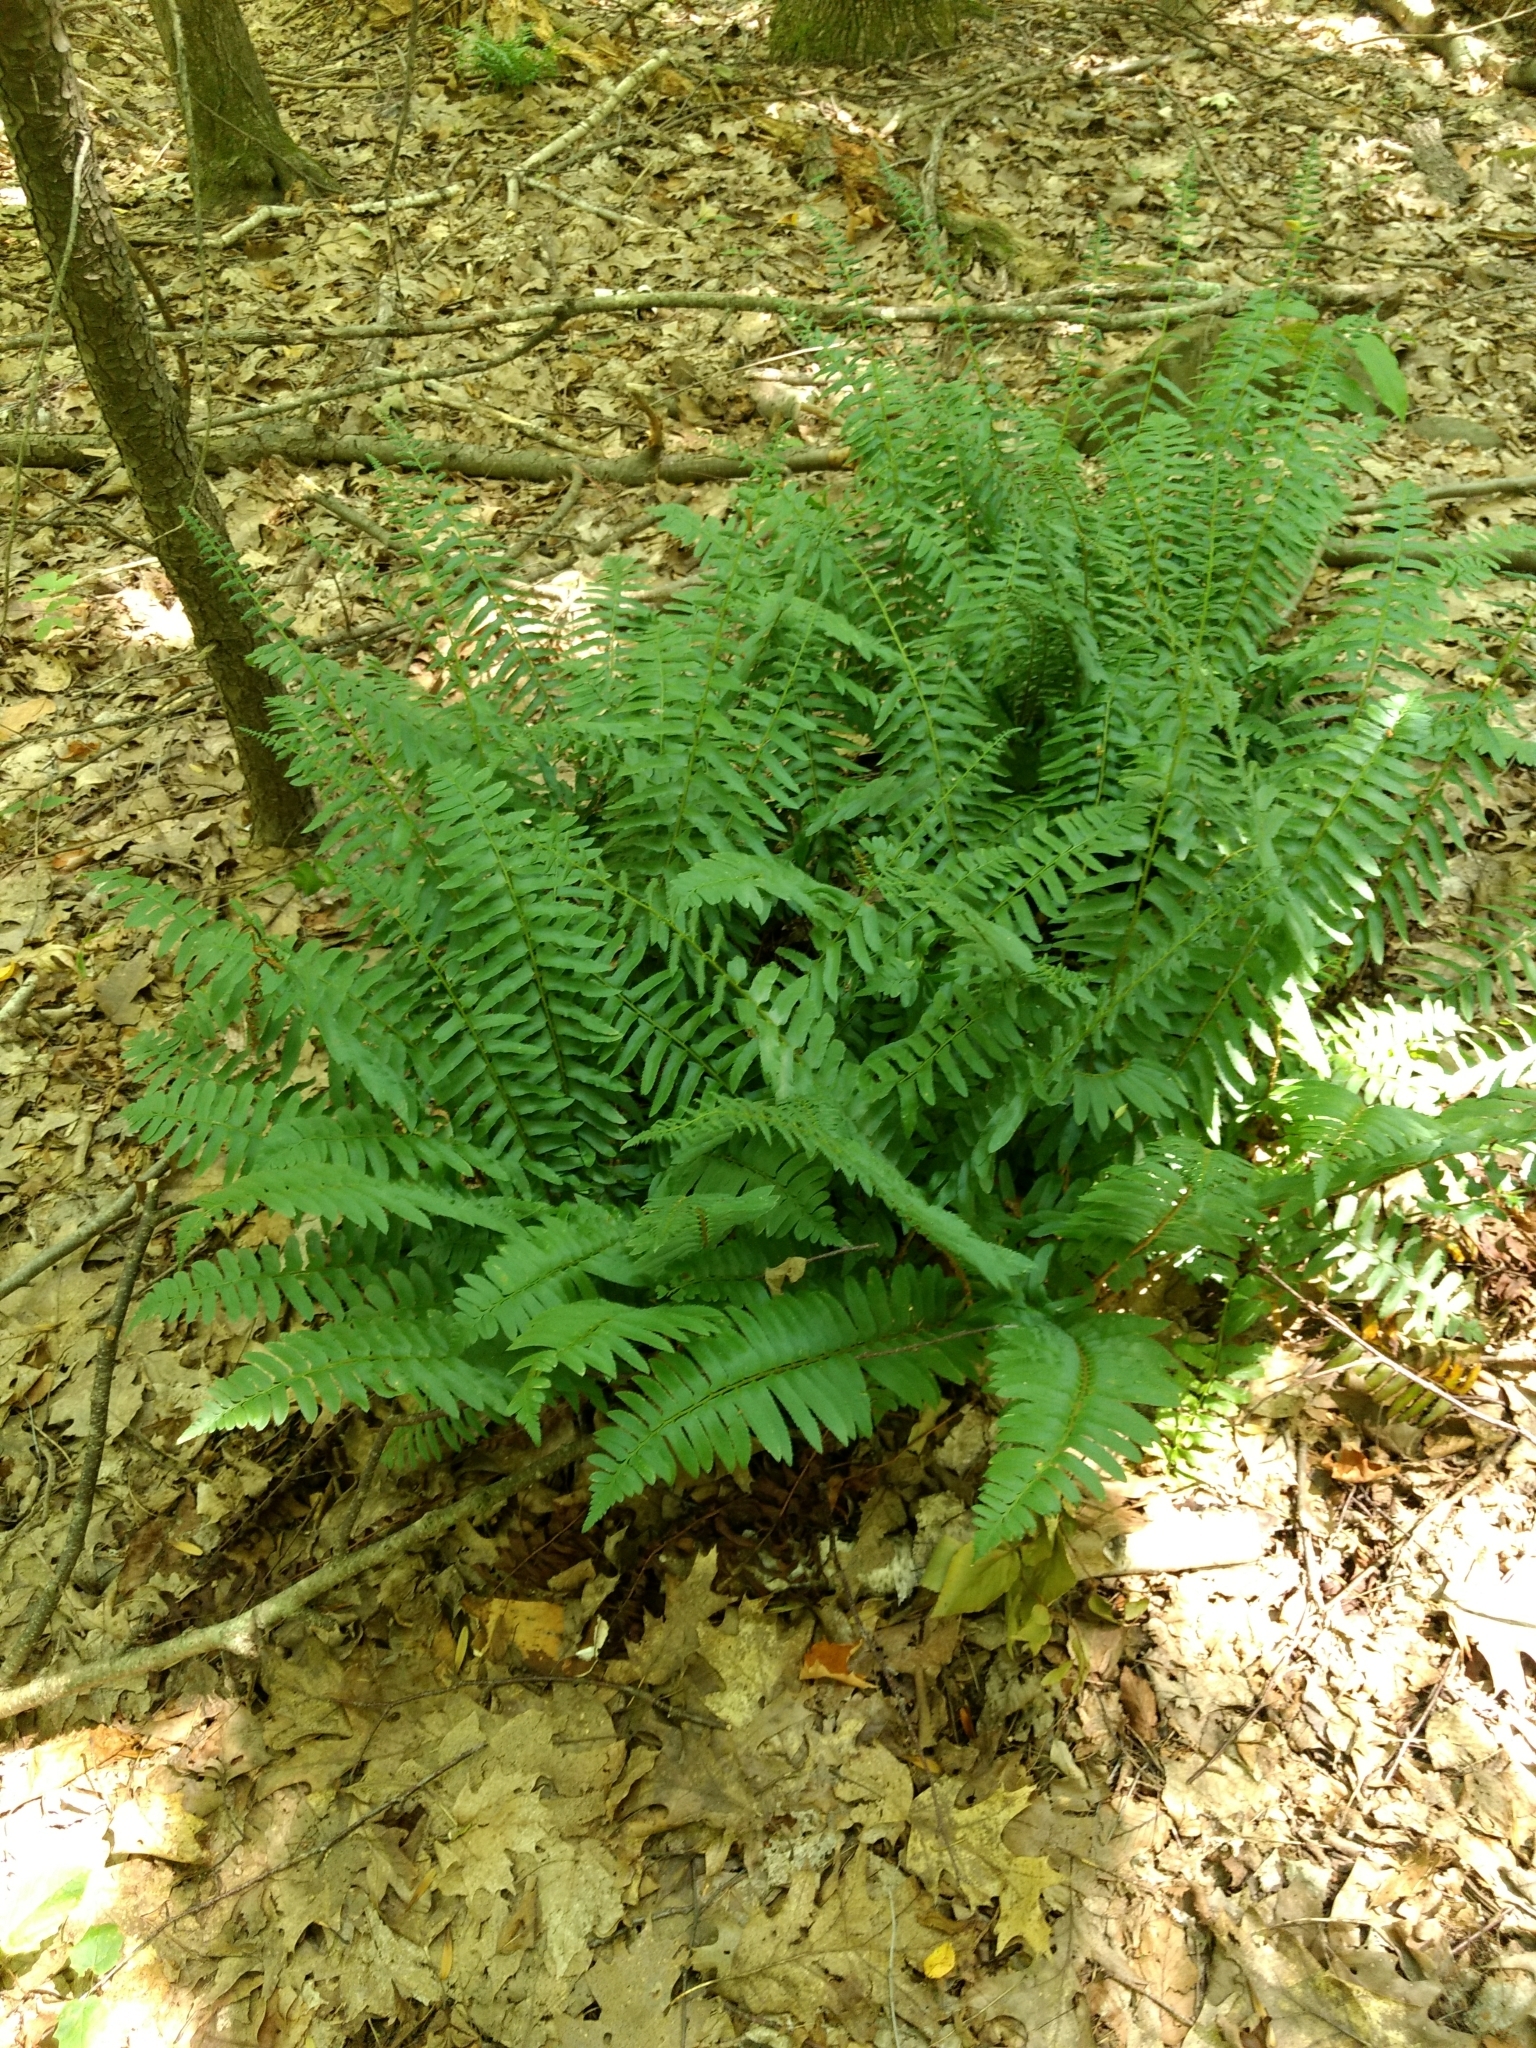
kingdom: Plantae
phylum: Tracheophyta
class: Polypodiopsida
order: Polypodiales
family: Dryopteridaceae
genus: Polystichum
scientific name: Polystichum acrostichoides
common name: Christmas fern
